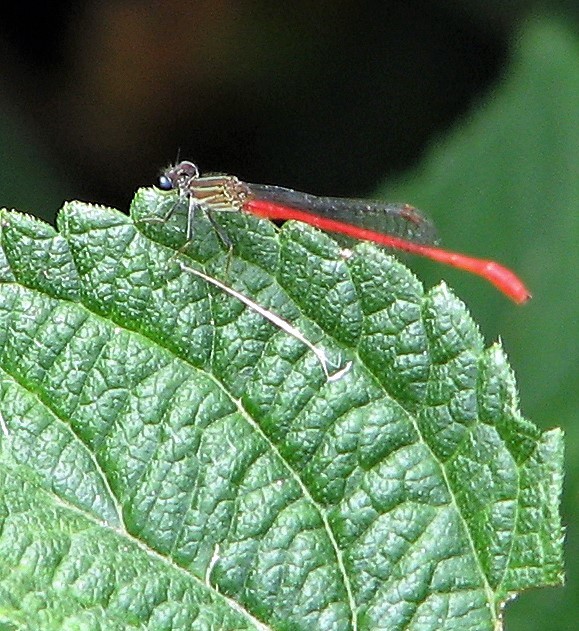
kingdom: Animalia
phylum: Arthropoda
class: Insecta
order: Odonata
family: Coenagrionidae
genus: Telebasis
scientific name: Telebasis willinki
